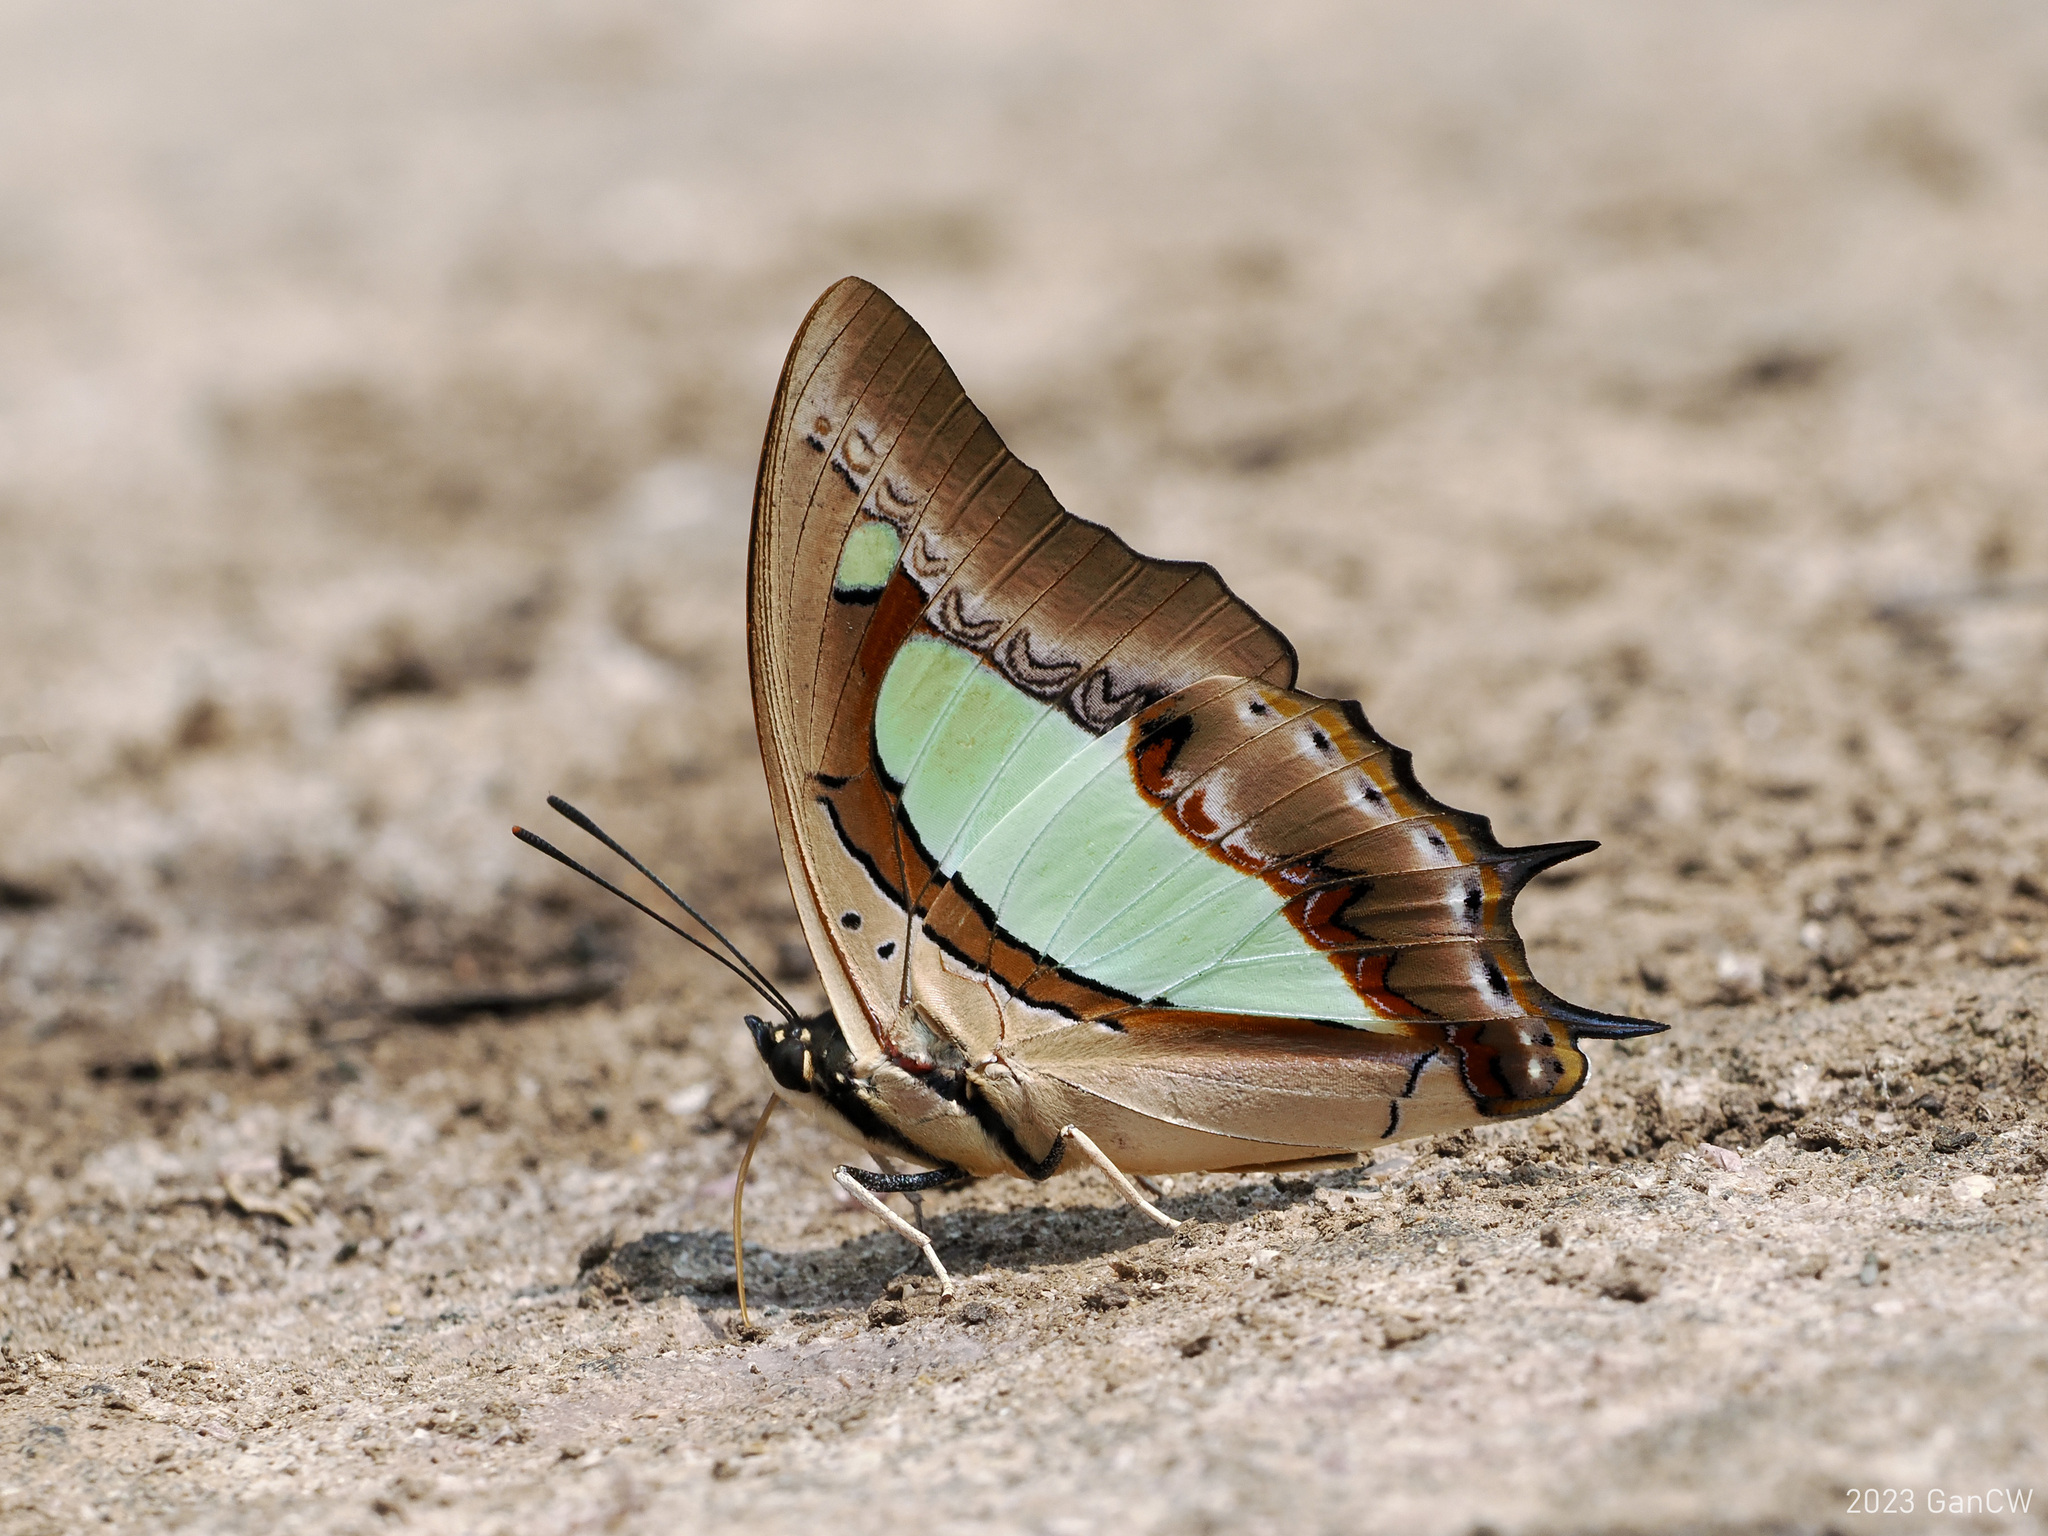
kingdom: Animalia
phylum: Arthropoda
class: Insecta
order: Lepidoptera
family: Nymphalidae
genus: Polyura
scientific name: Polyura athamas
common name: Common nawab
